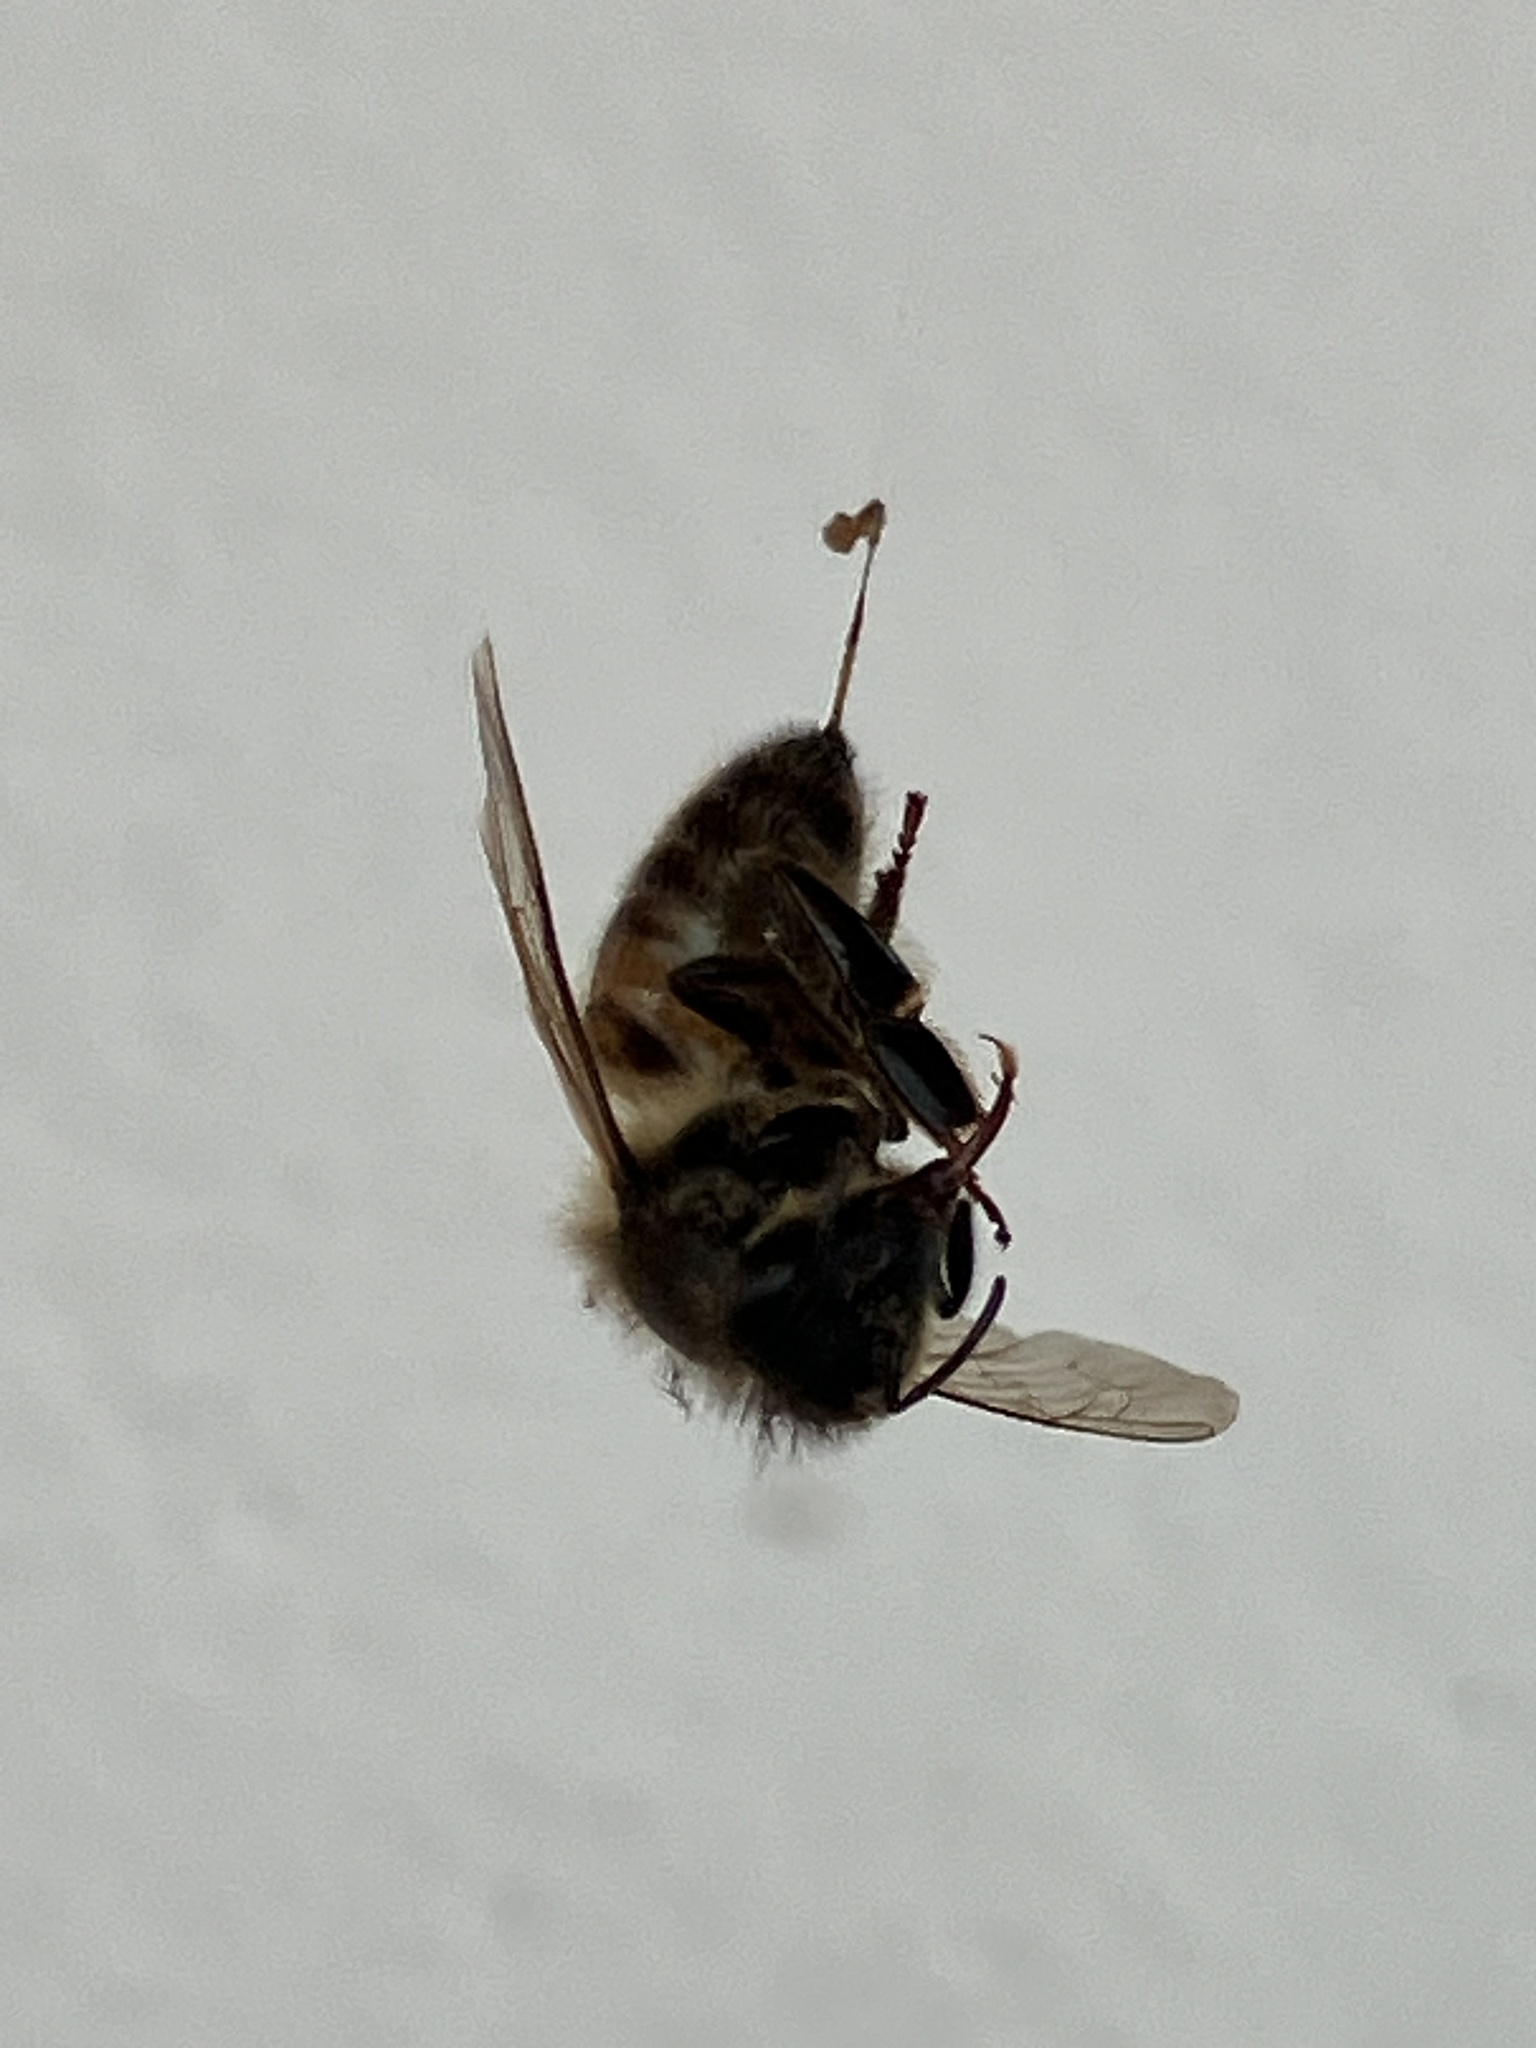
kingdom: Animalia
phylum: Arthropoda
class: Insecta
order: Hymenoptera
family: Apidae
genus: Apis
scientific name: Apis mellifera
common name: Honey bee
